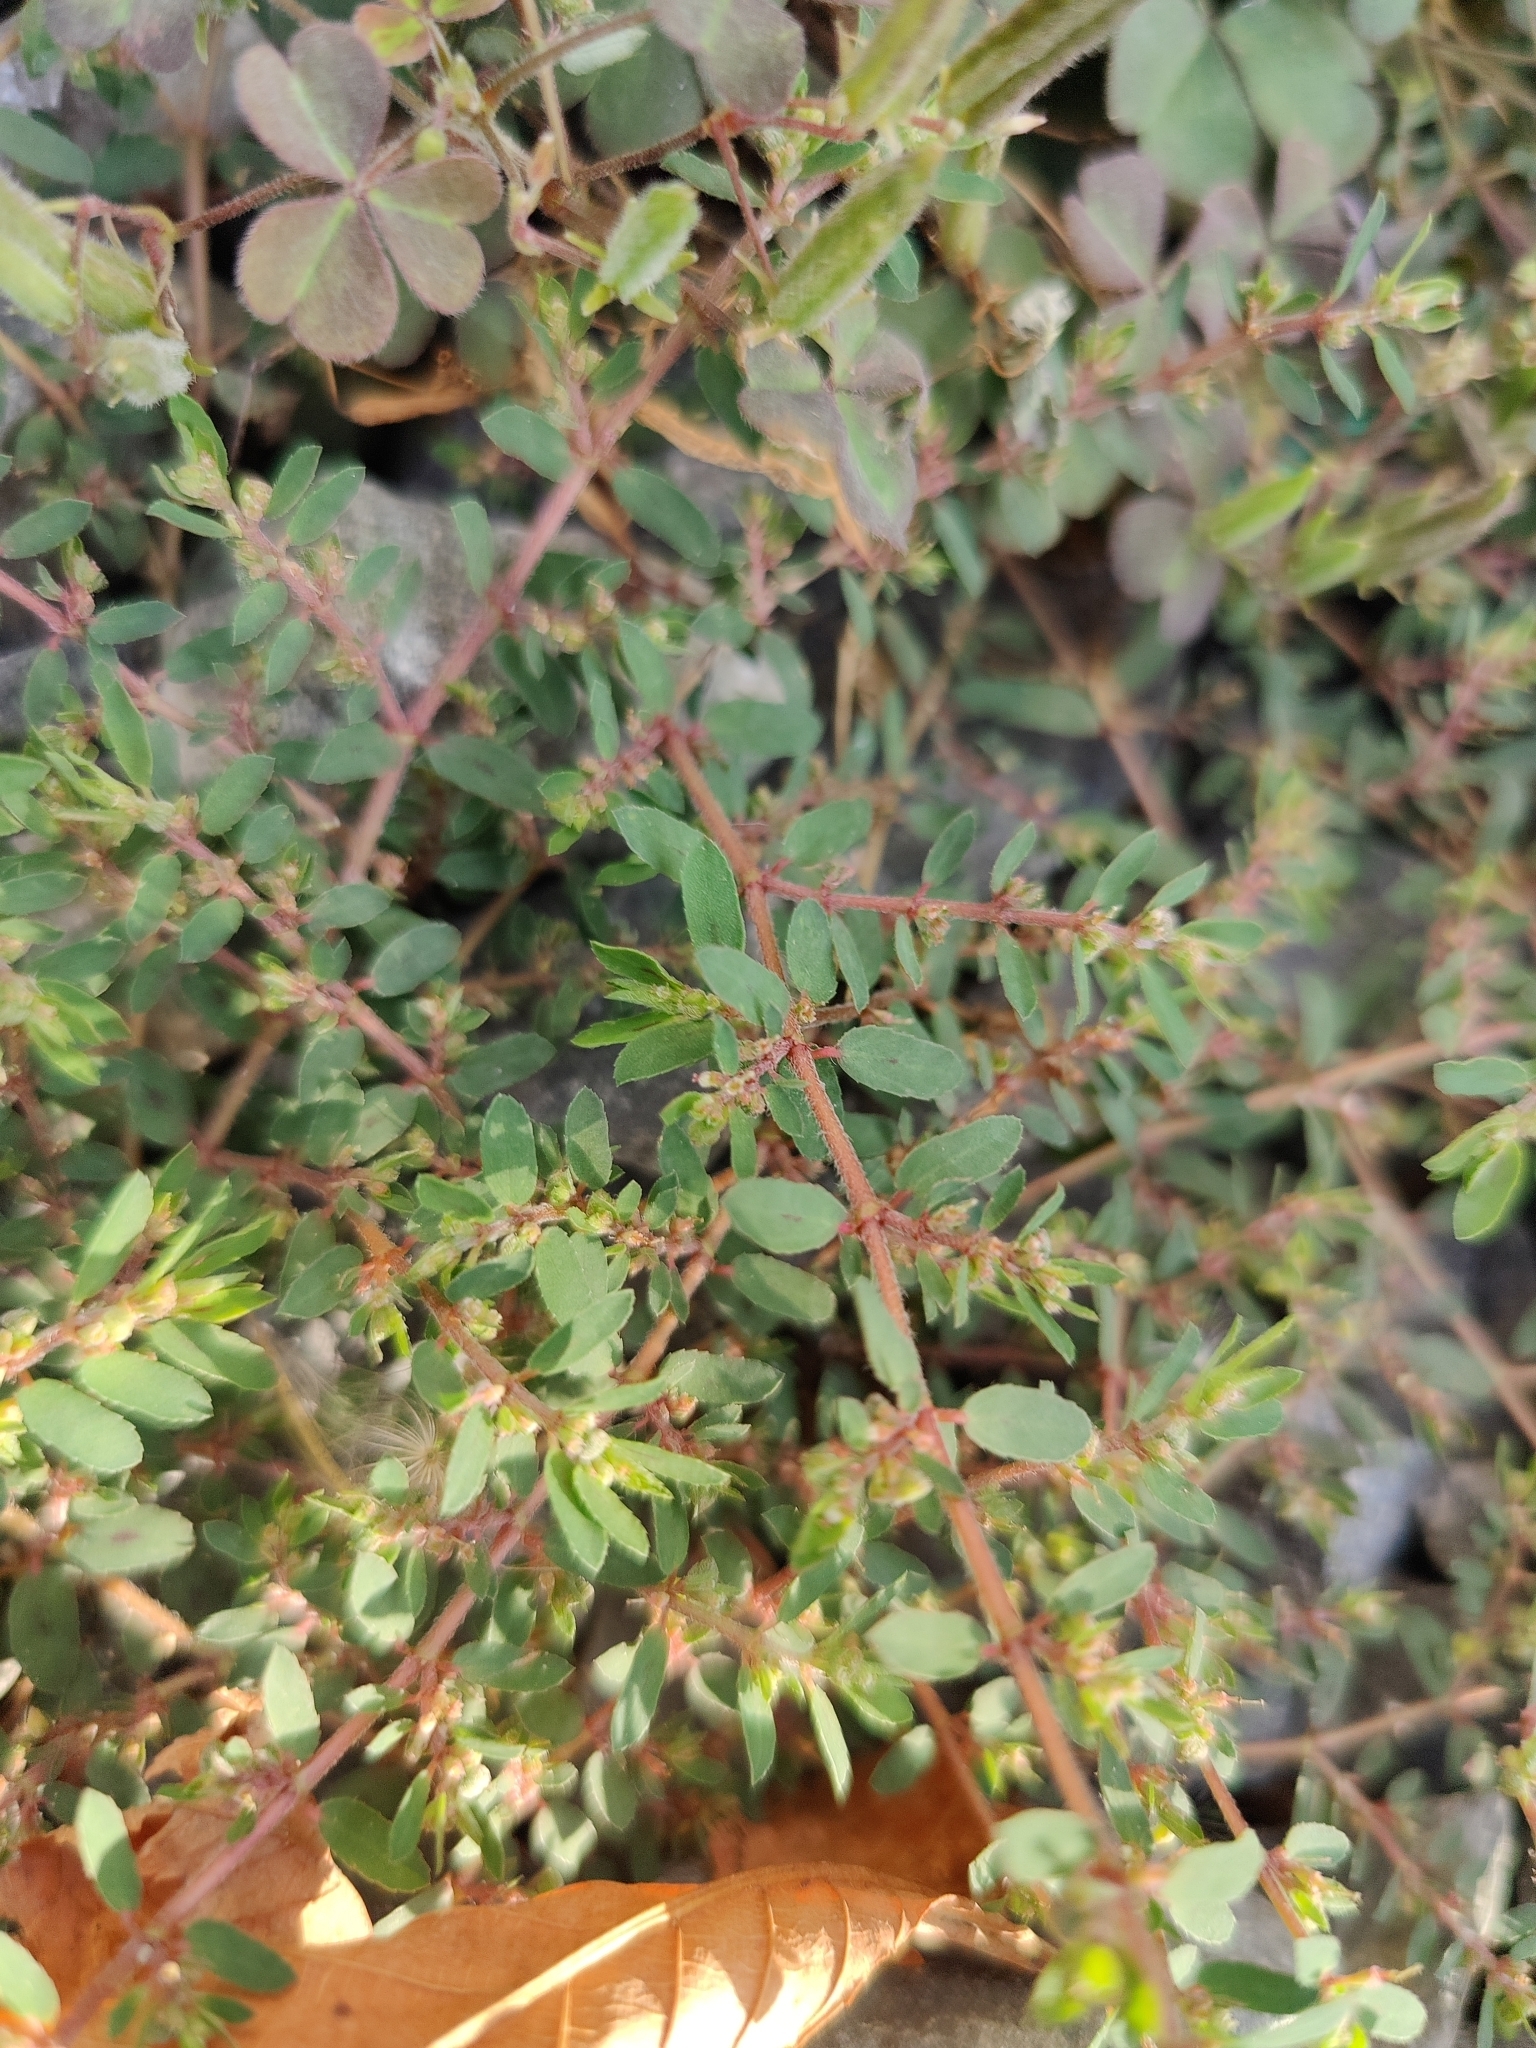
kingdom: Plantae
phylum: Tracheophyta
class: Magnoliopsida
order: Malpighiales
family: Euphorbiaceae
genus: Euphorbia
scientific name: Euphorbia maculata
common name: Spotted spurge
